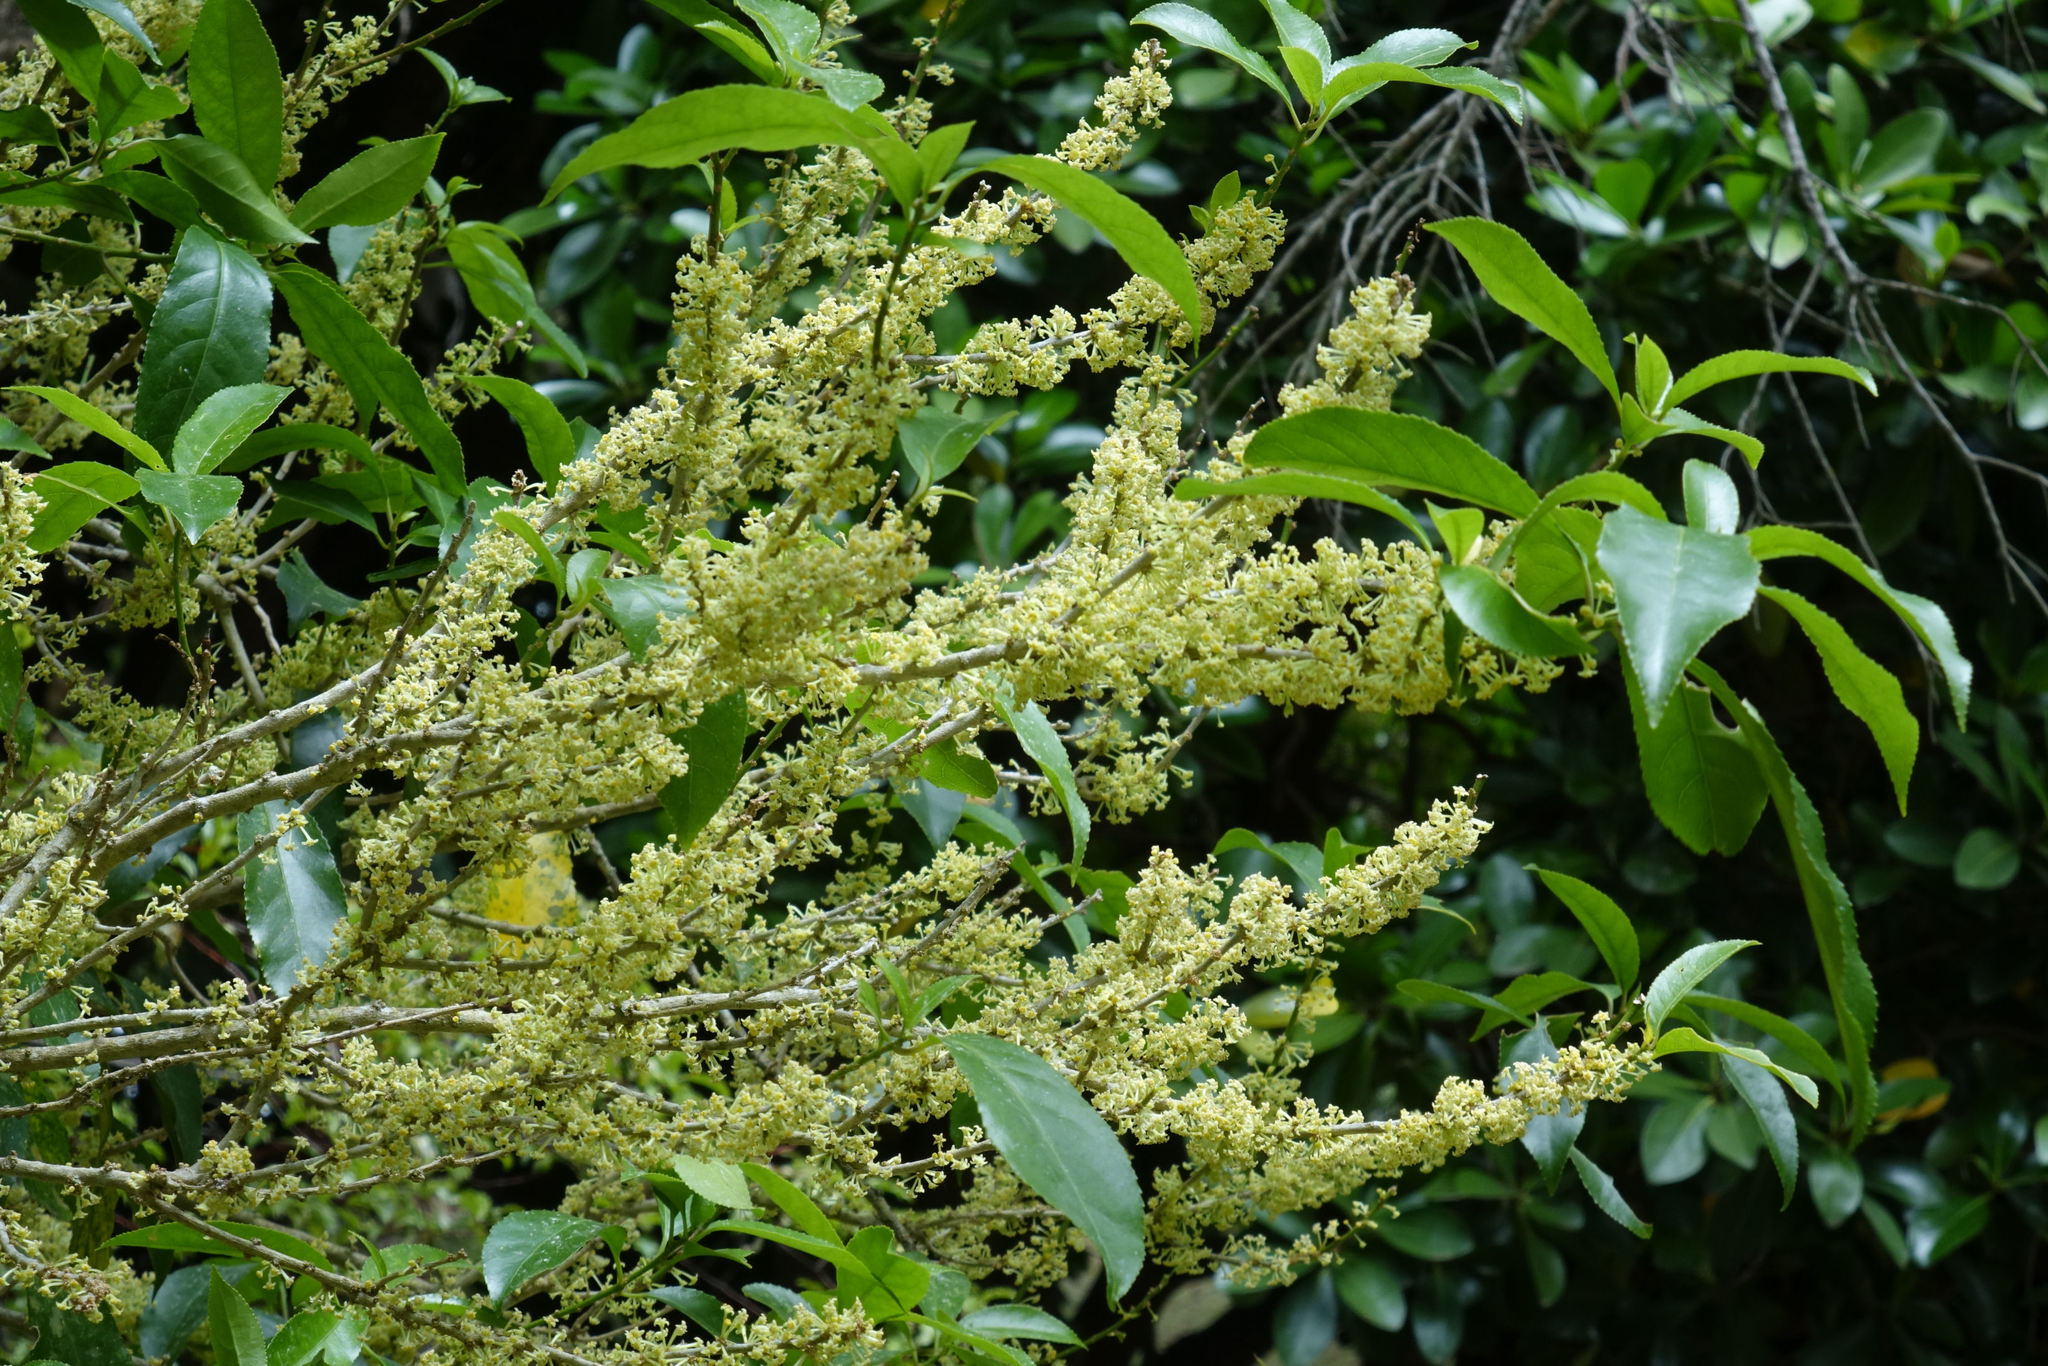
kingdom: Plantae
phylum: Tracheophyta
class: Magnoliopsida
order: Malpighiales
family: Violaceae
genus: Melicytus
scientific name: Melicytus ramiflorus
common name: Mahoe
